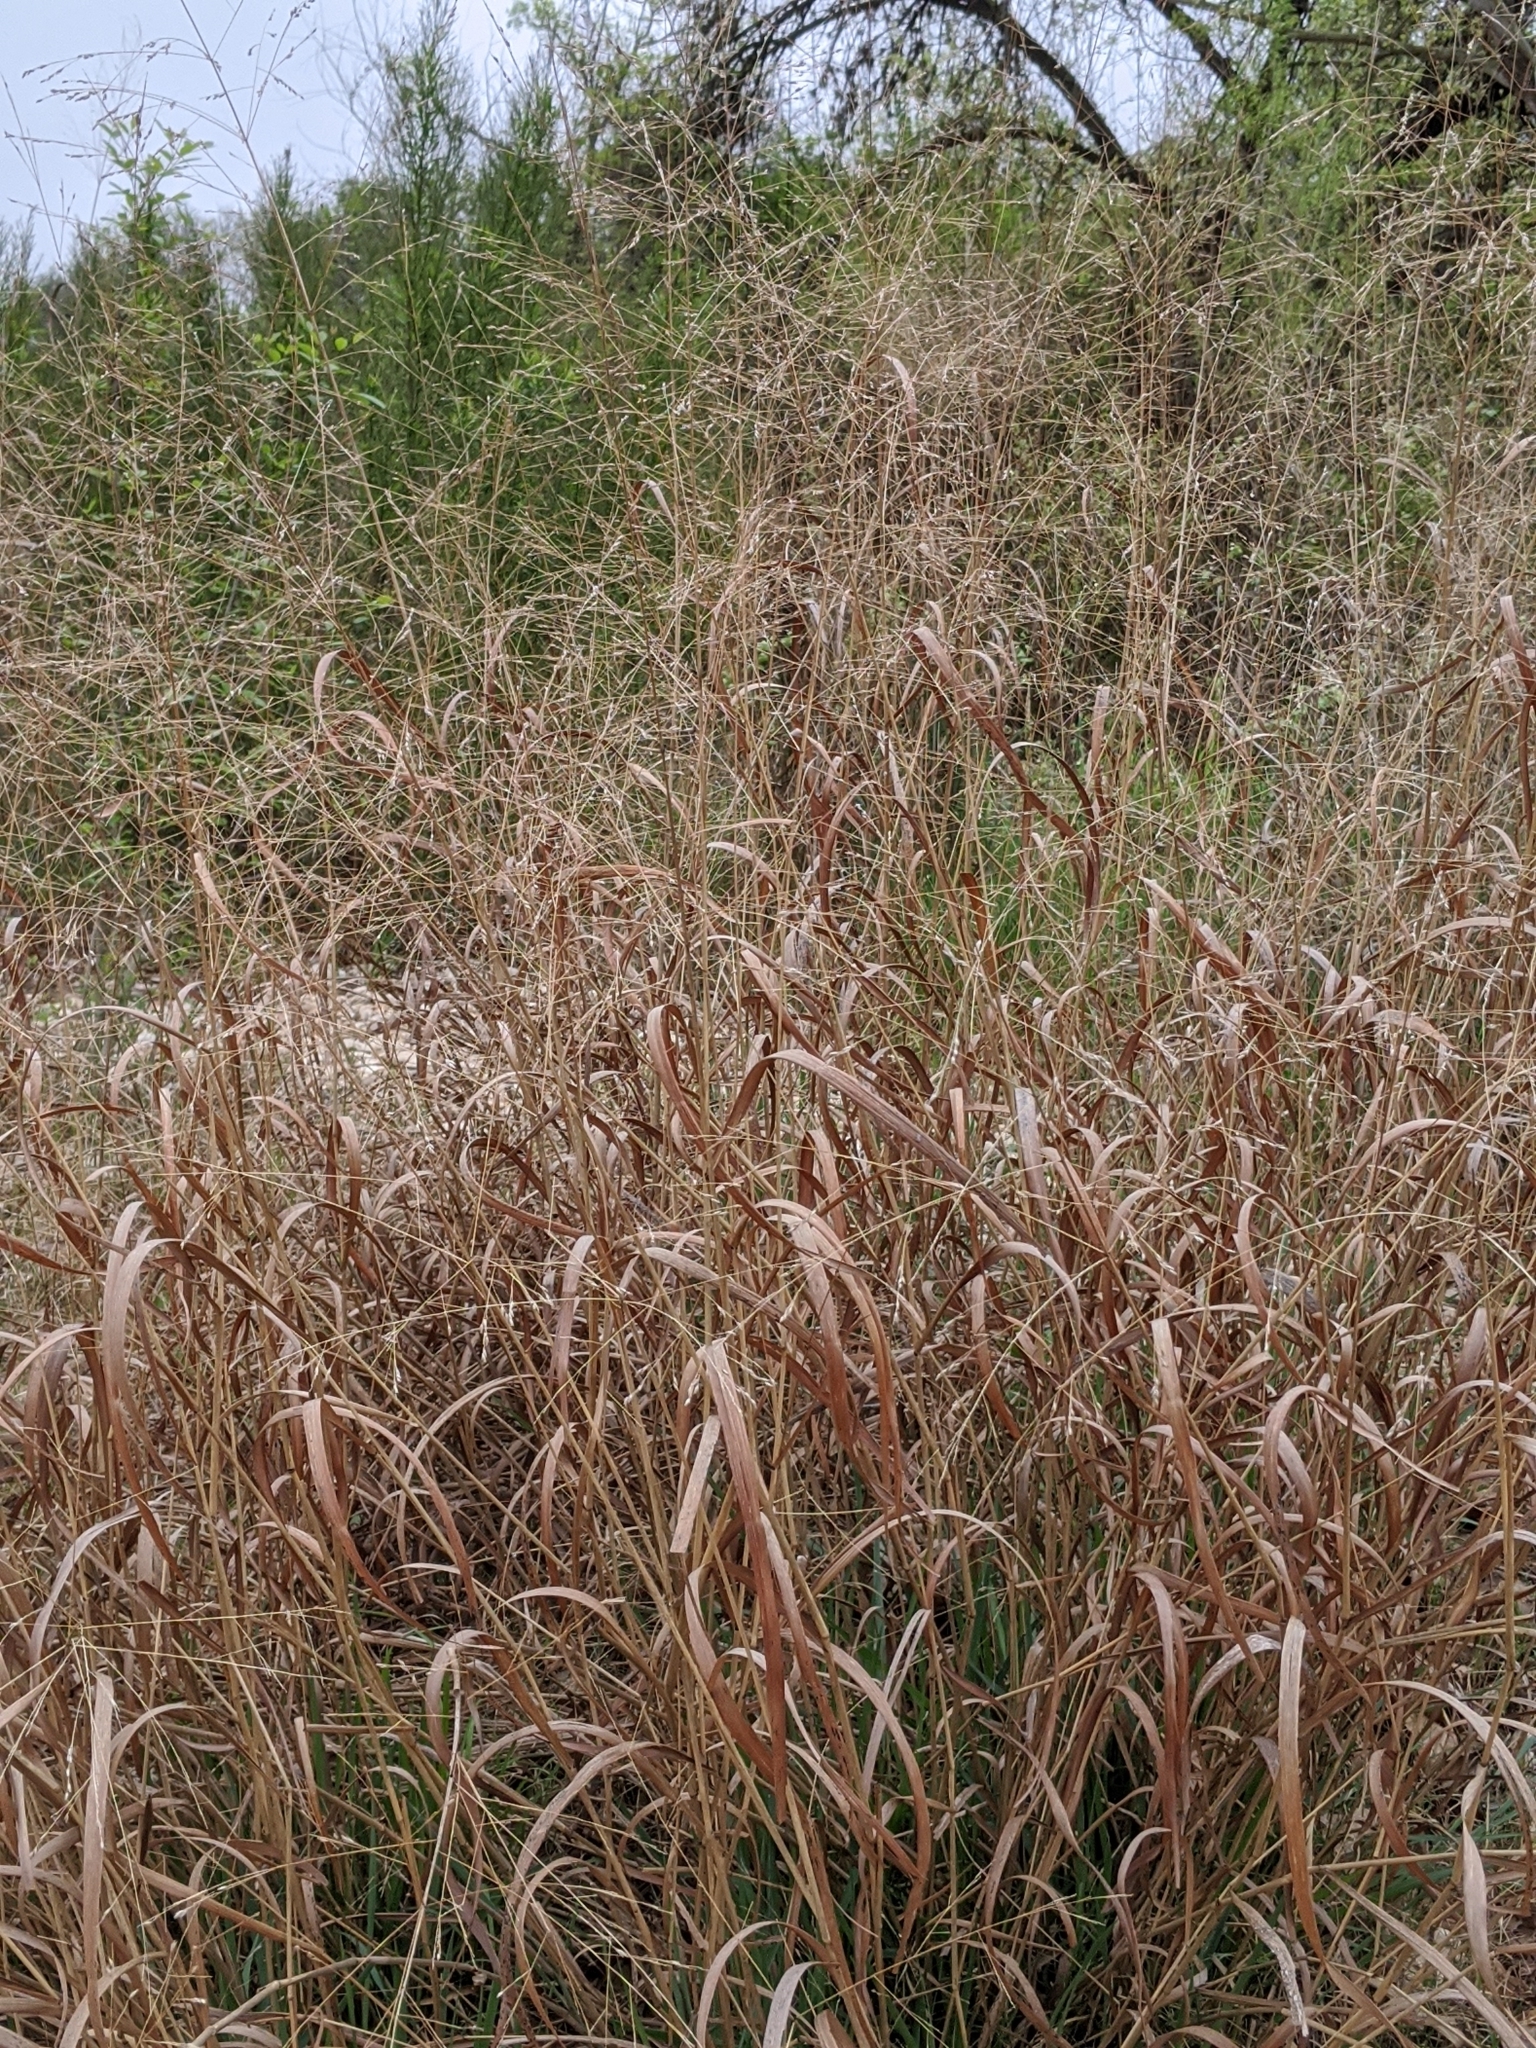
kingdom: Plantae
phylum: Tracheophyta
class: Liliopsida
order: Poales
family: Poaceae
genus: Panicum
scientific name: Panicum virgatum
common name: Switchgrass
